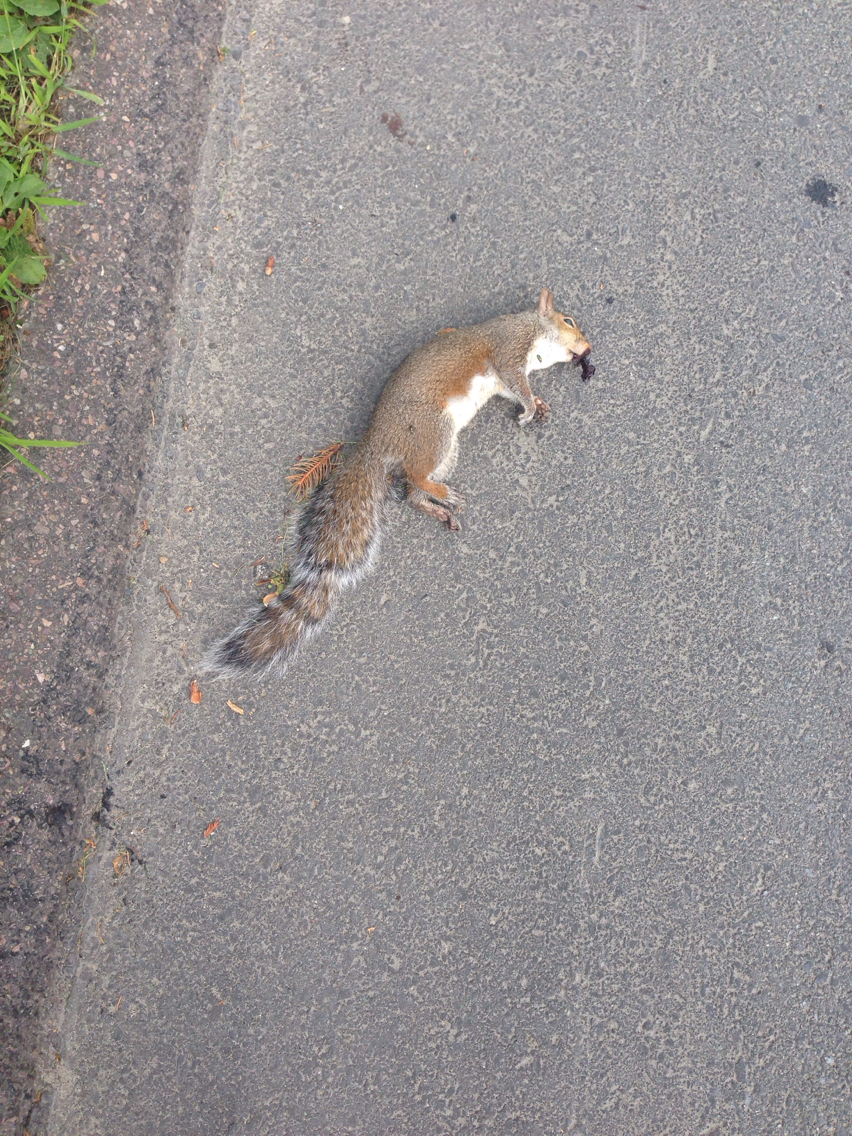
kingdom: Animalia
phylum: Chordata
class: Mammalia
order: Rodentia
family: Sciuridae
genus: Sciurus
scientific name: Sciurus carolinensis
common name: Eastern gray squirrel
